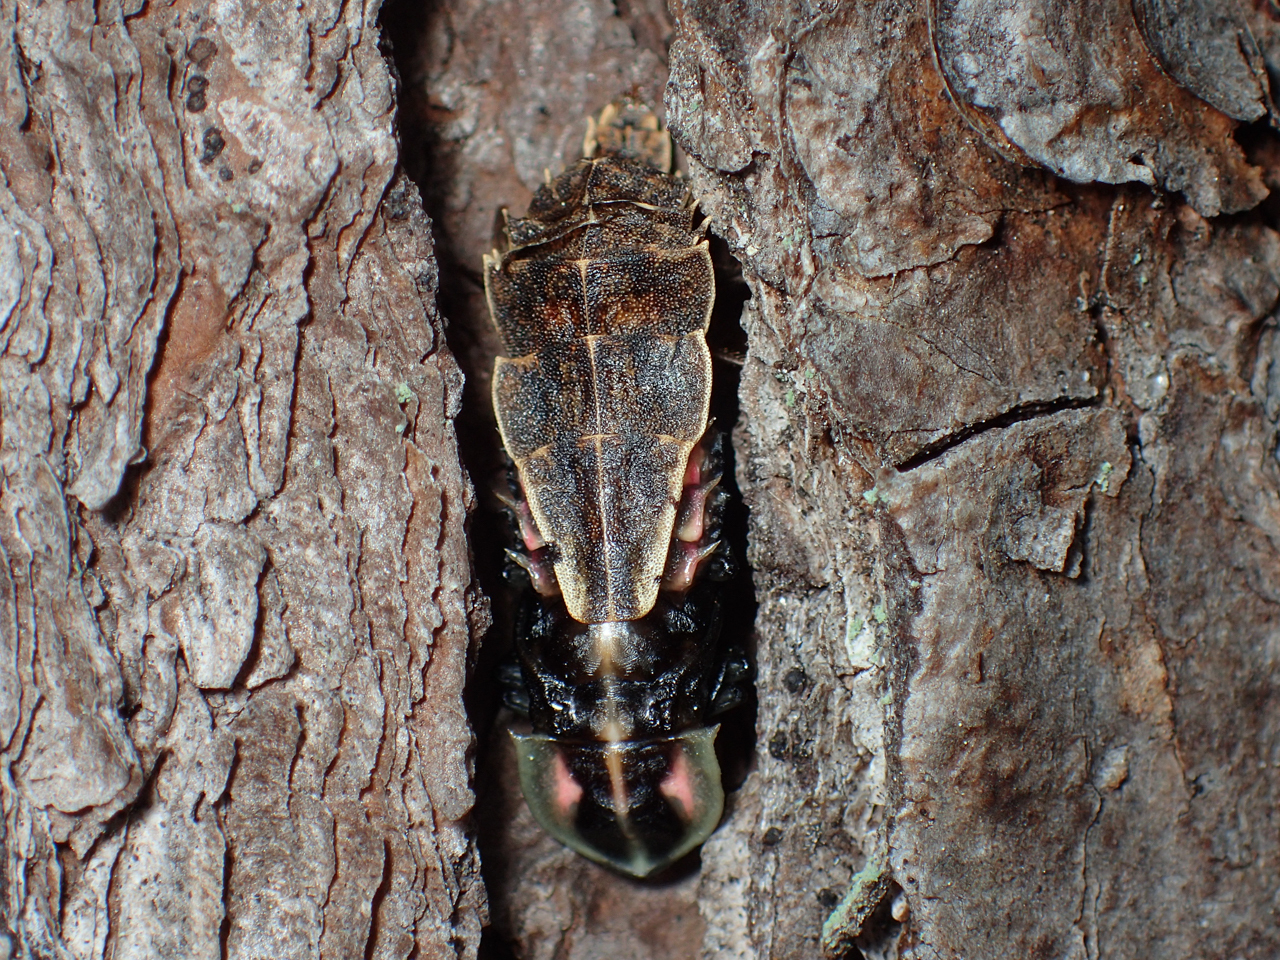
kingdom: Animalia
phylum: Arthropoda
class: Insecta
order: Coleoptera
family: Lampyridae
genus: Pyractomena
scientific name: Pyractomena borealis
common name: Northern firefly
